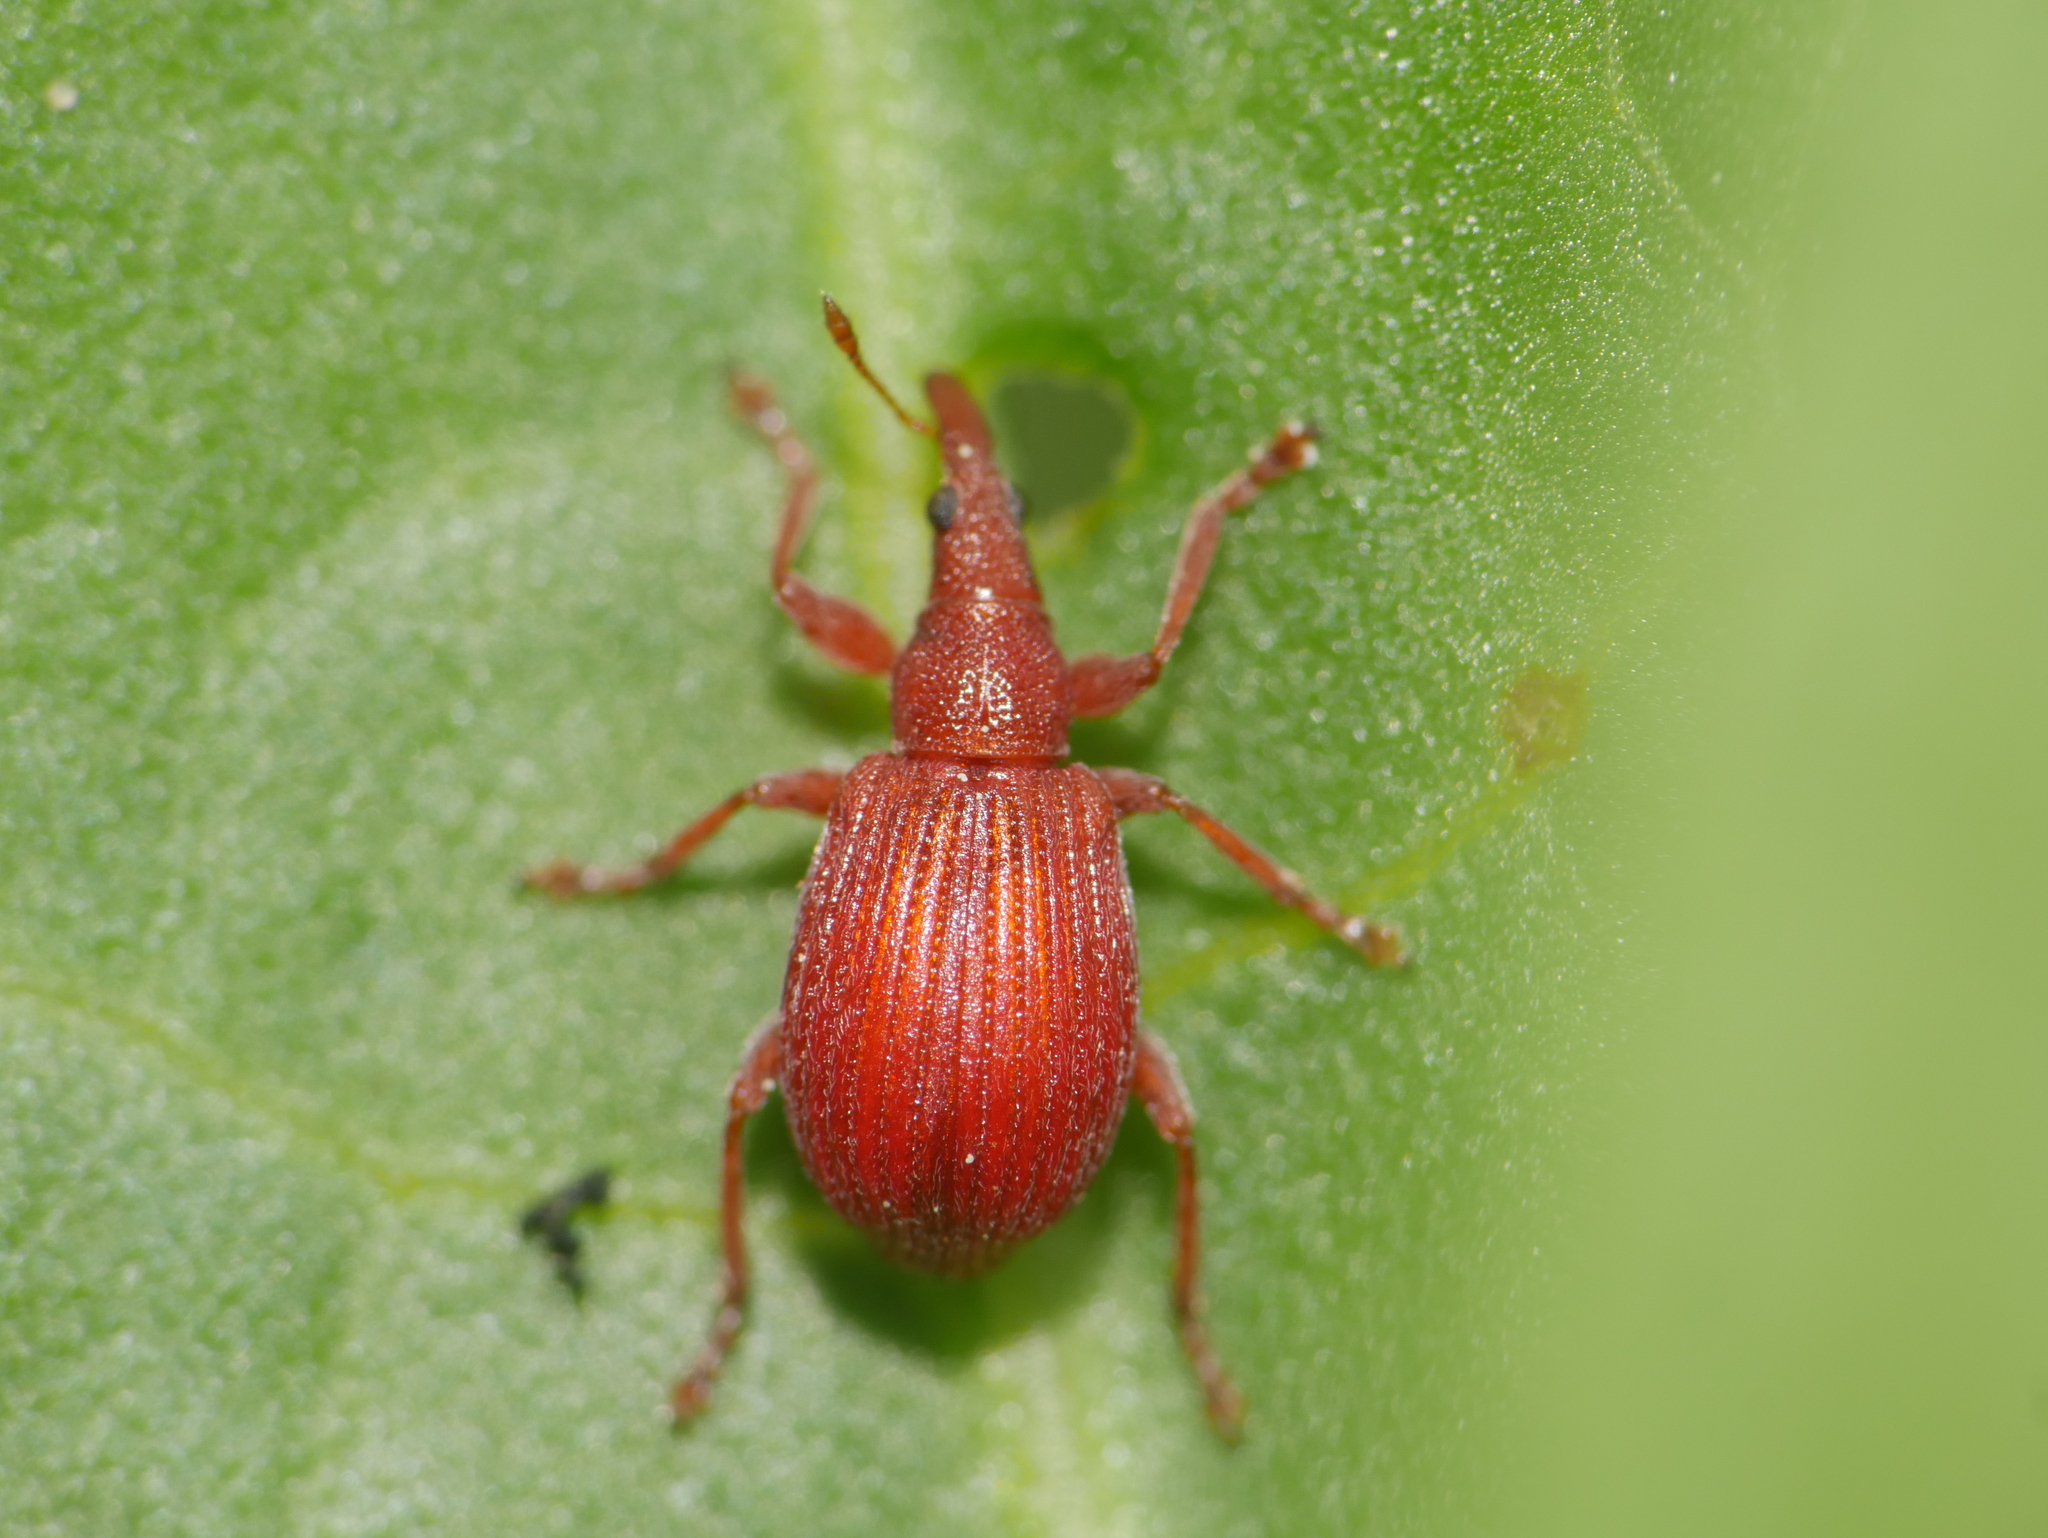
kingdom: Animalia
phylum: Arthropoda
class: Insecta
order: Coleoptera
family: Apionidae
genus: Apion
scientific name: Apion frumentarium
